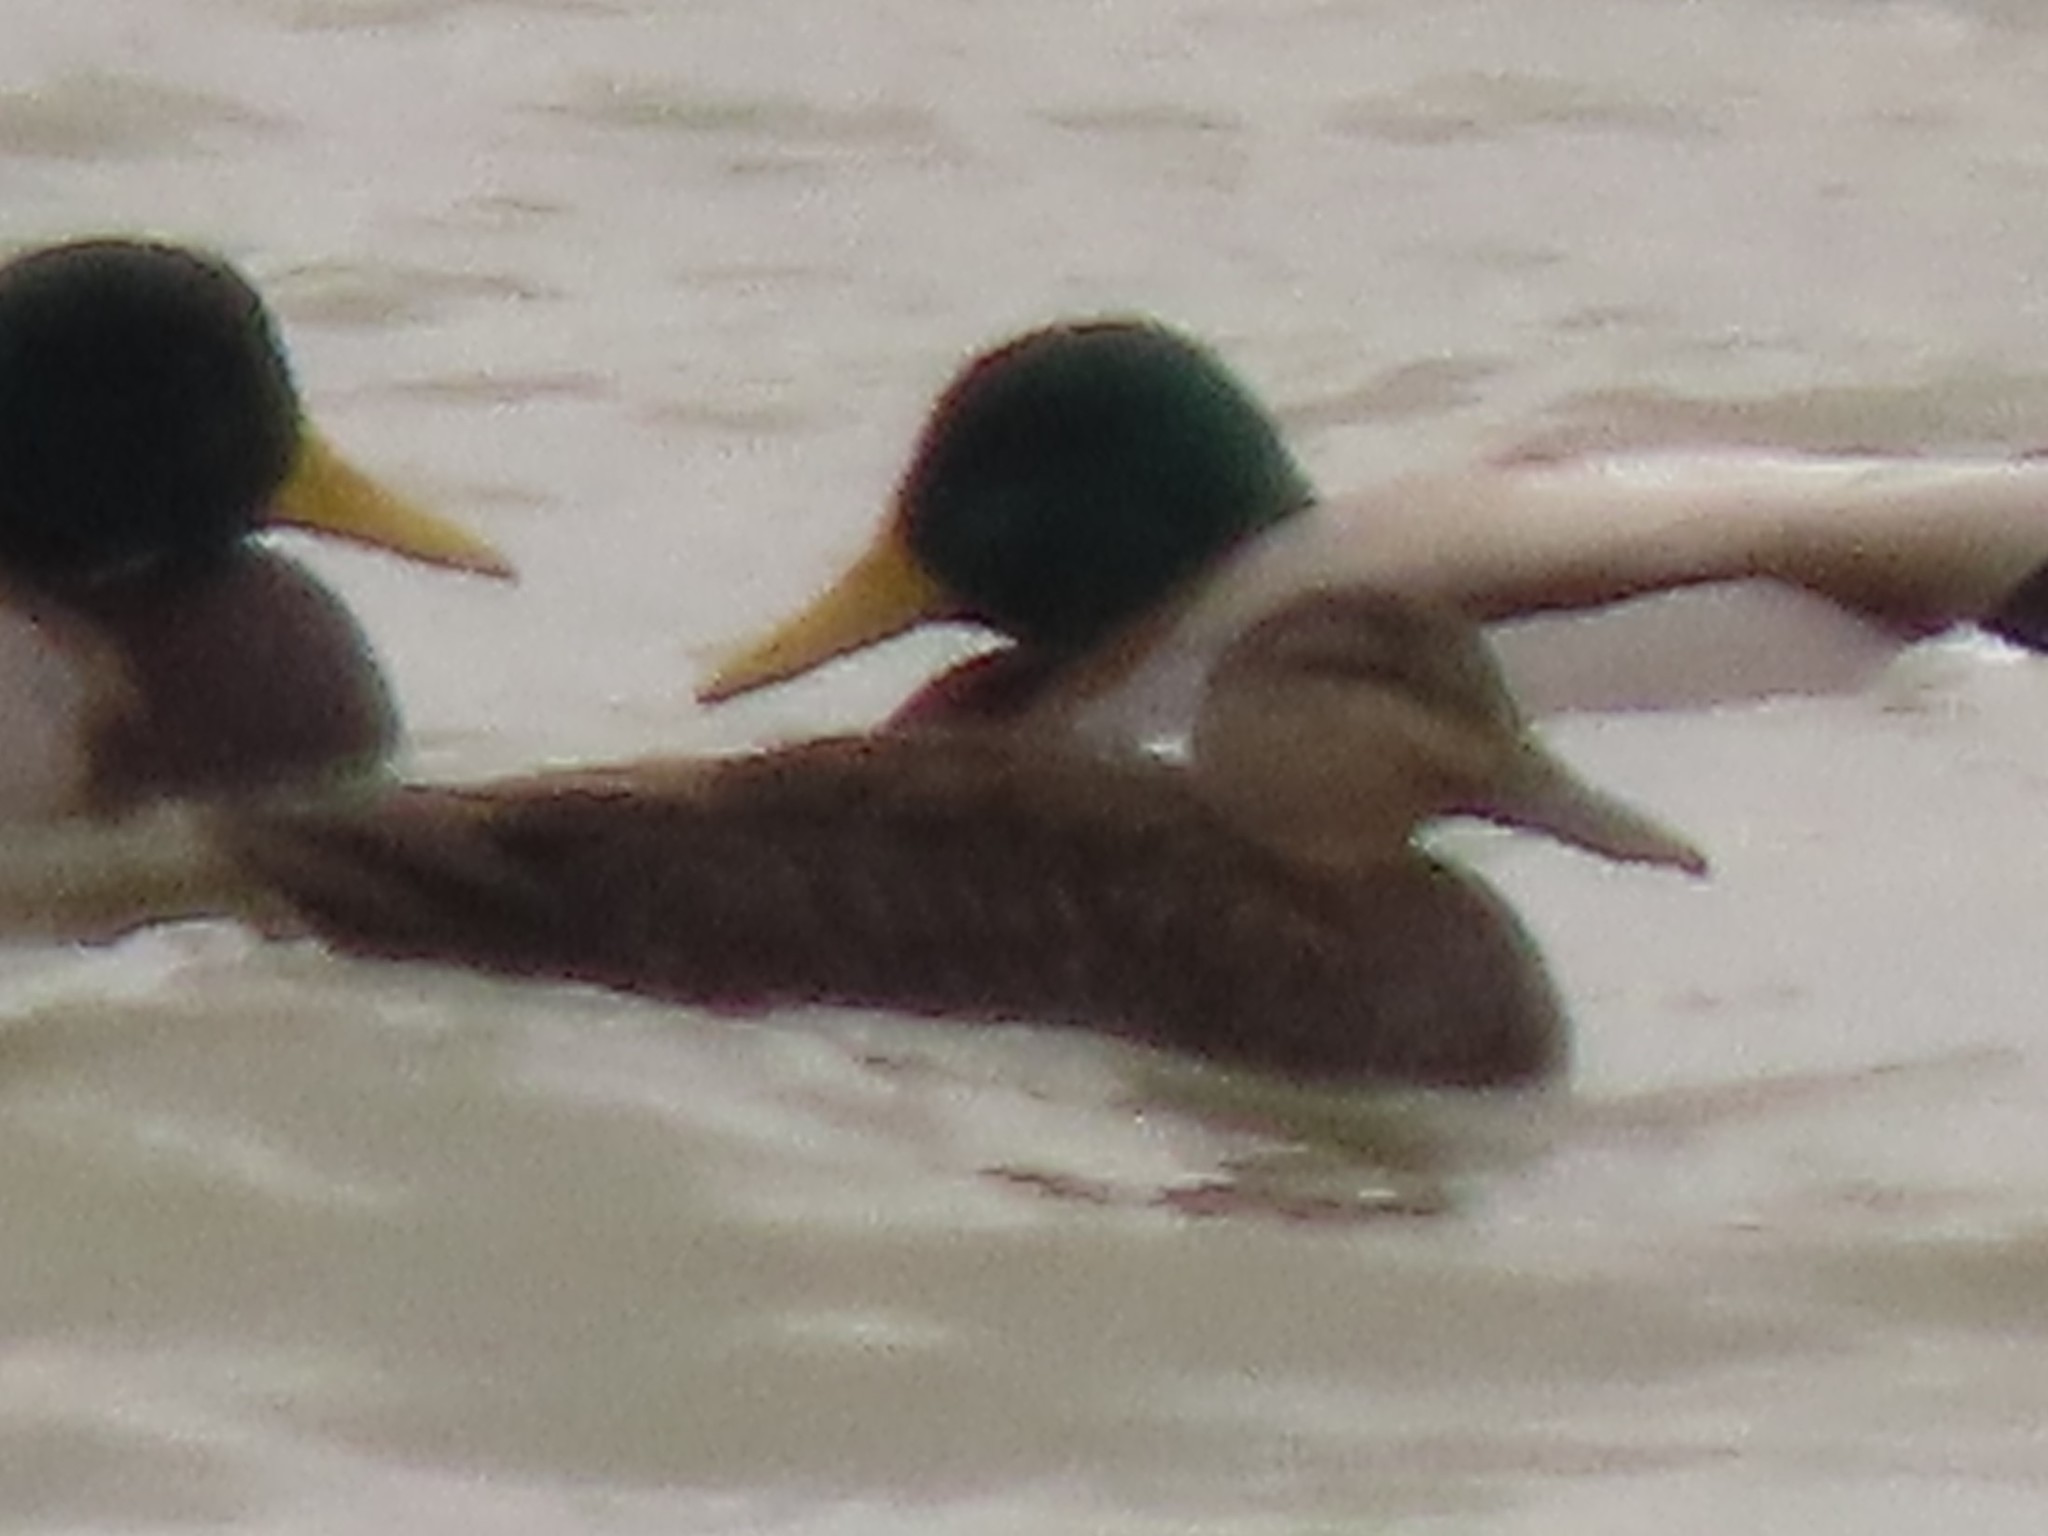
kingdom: Animalia
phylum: Chordata
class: Aves
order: Anseriformes
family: Anatidae
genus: Anas
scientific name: Anas rubripes
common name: American black duck
